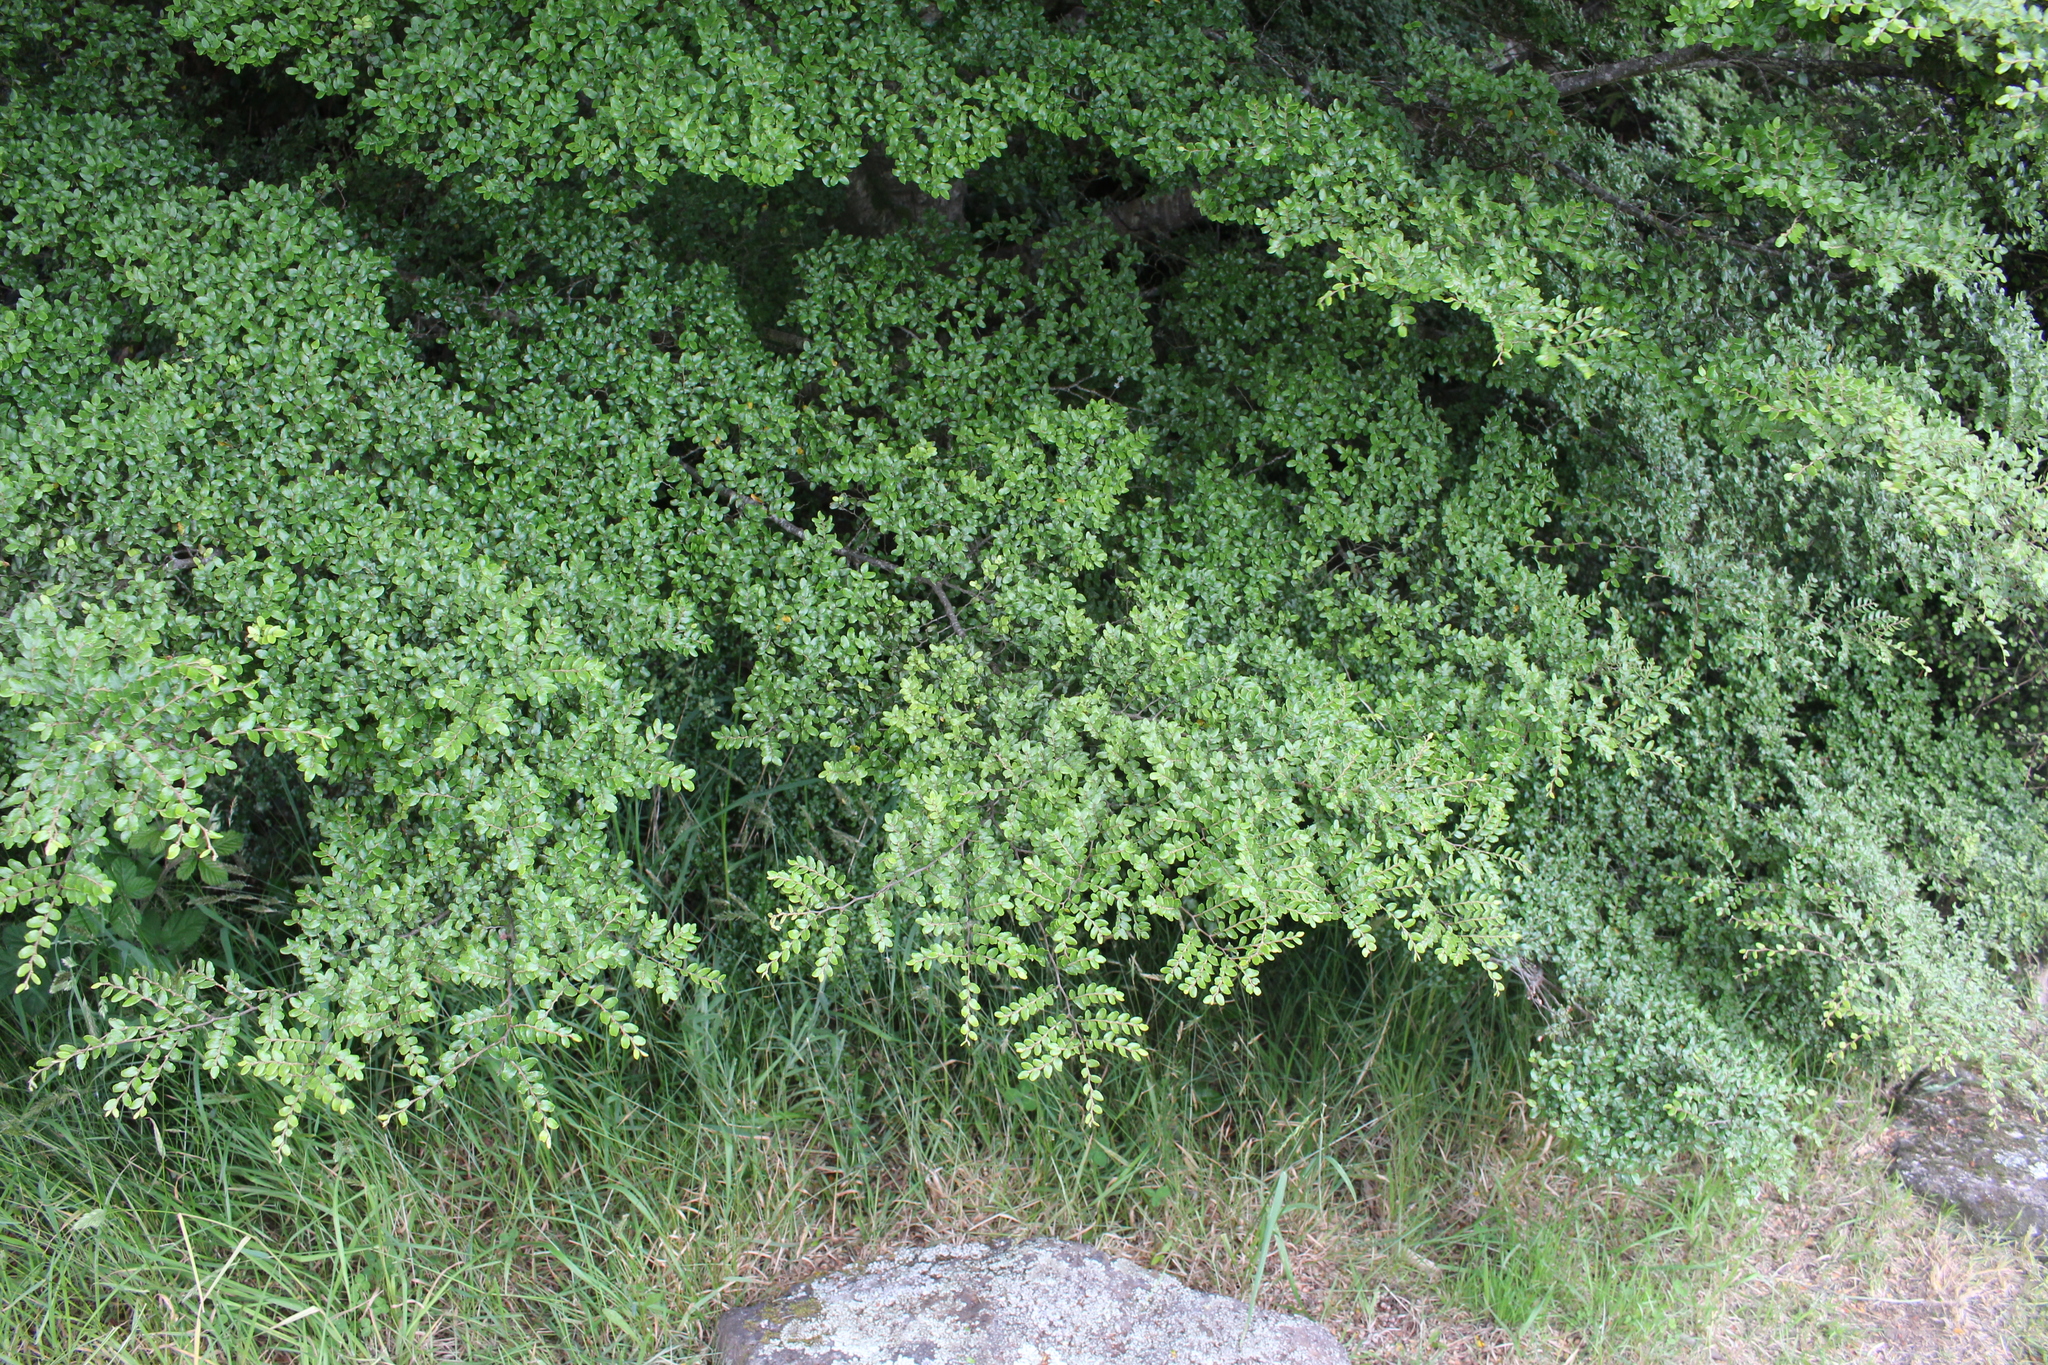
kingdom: Plantae
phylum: Tracheophyta
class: Magnoliopsida
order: Fagales
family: Nothofagaceae
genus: Nothofagus
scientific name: Nothofagus solandri
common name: Black beech
